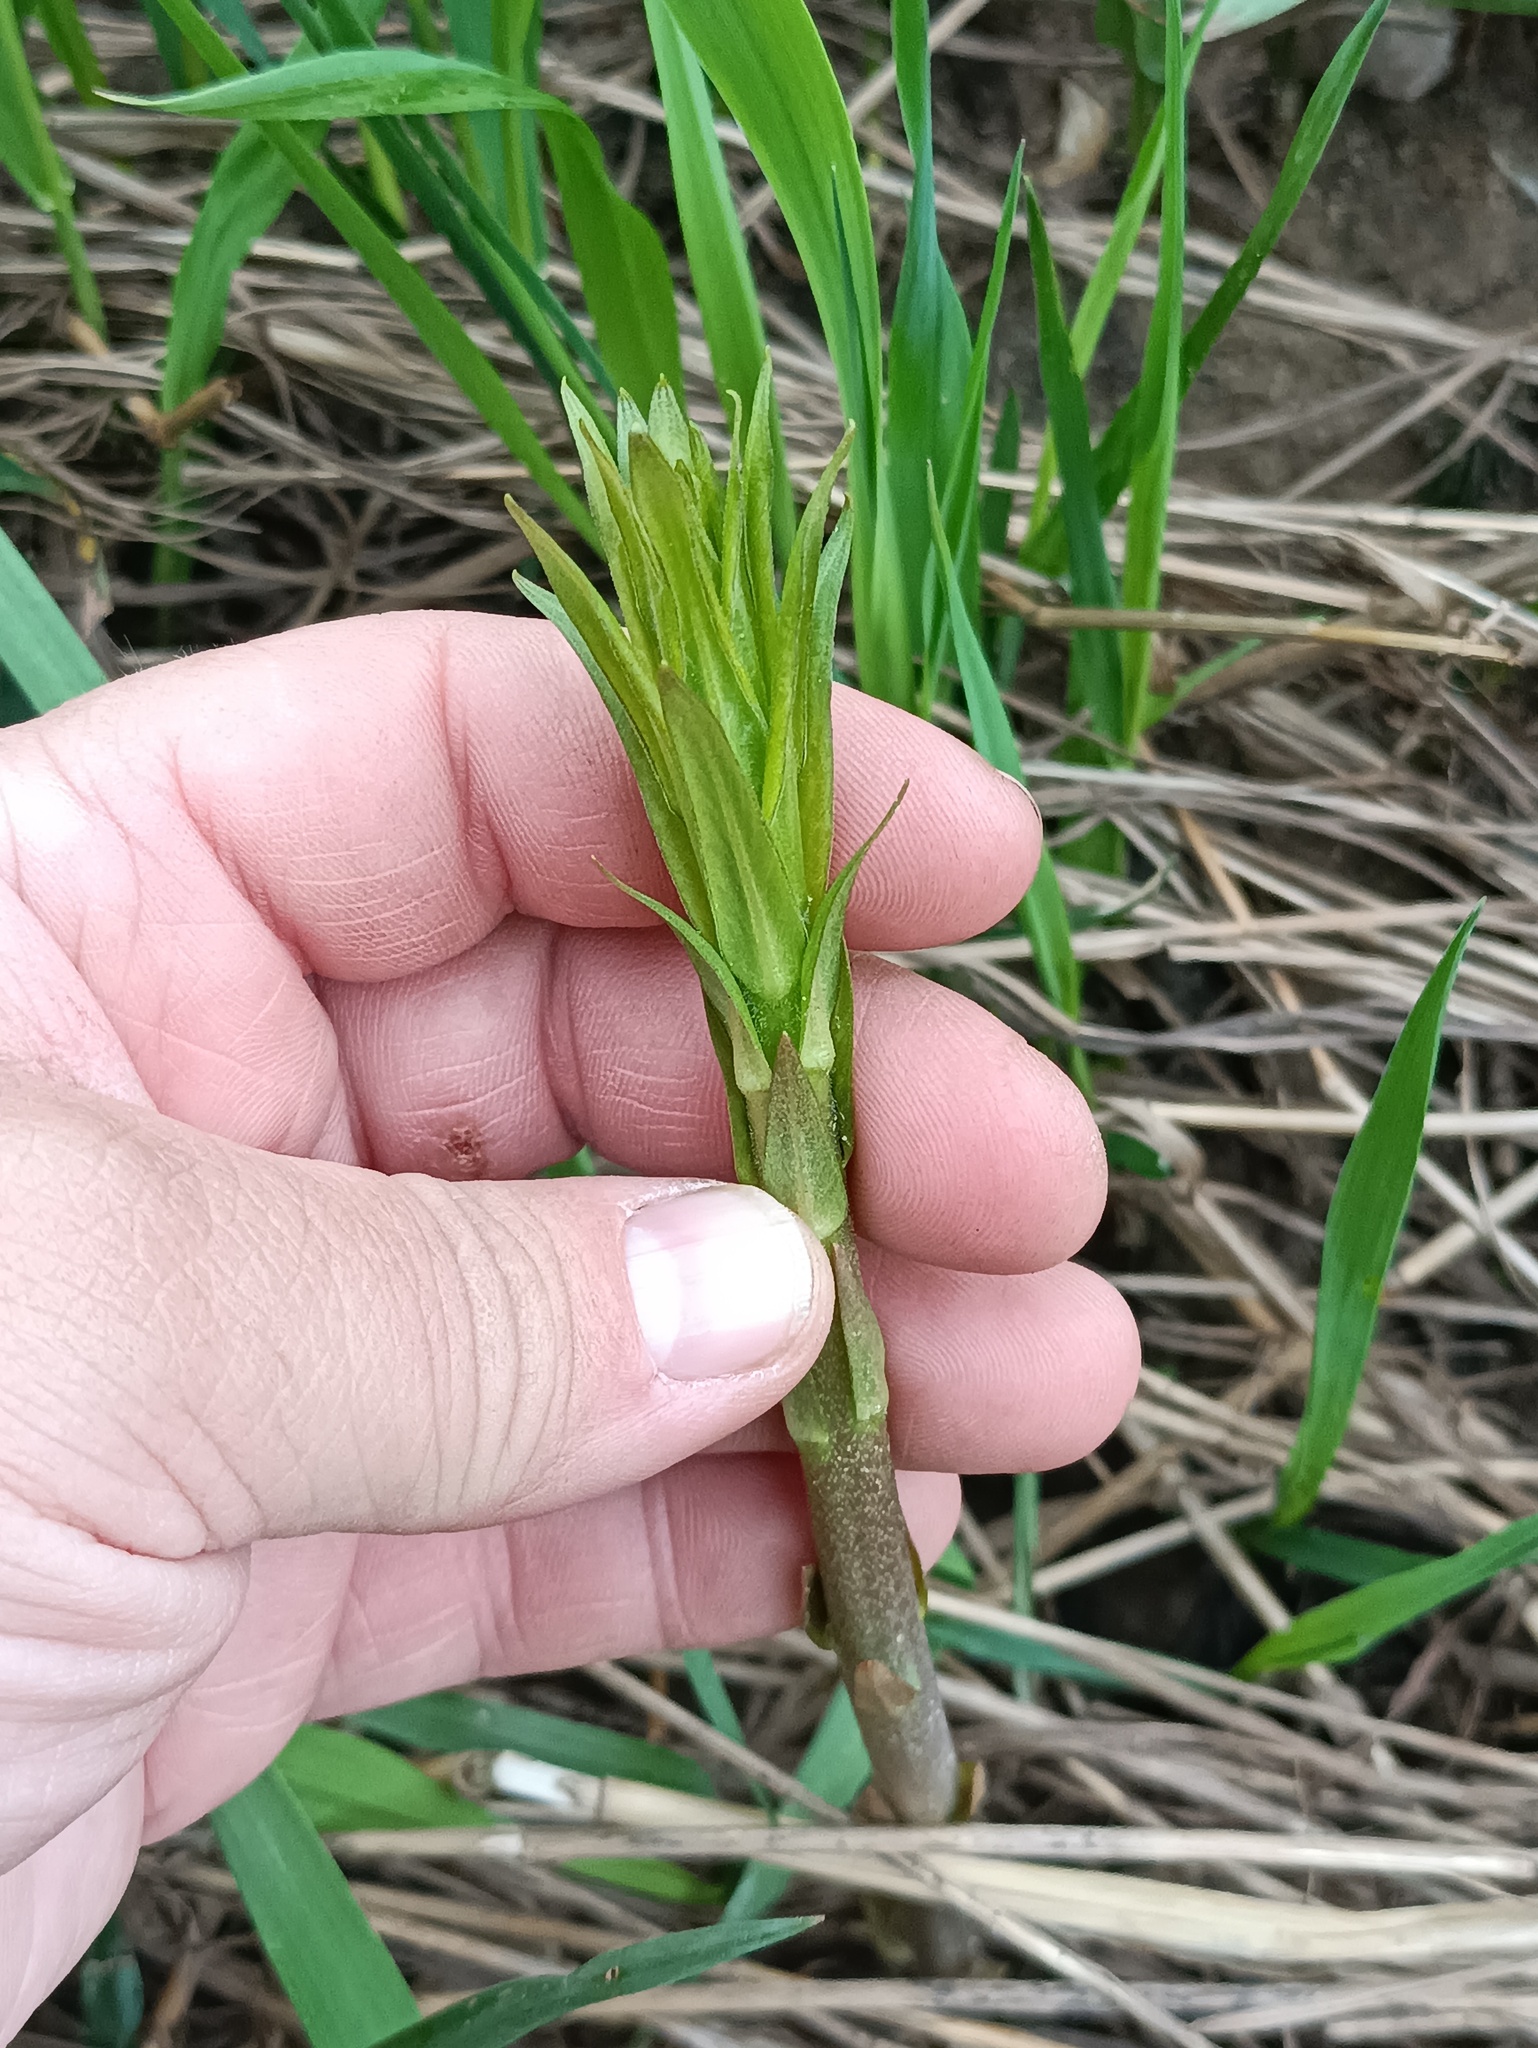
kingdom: Plantae
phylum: Tracheophyta
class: Magnoliopsida
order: Ericales
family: Primulaceae
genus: Lysimachia
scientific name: Lysimachia thyrsiflora
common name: Tufted loosestrife
